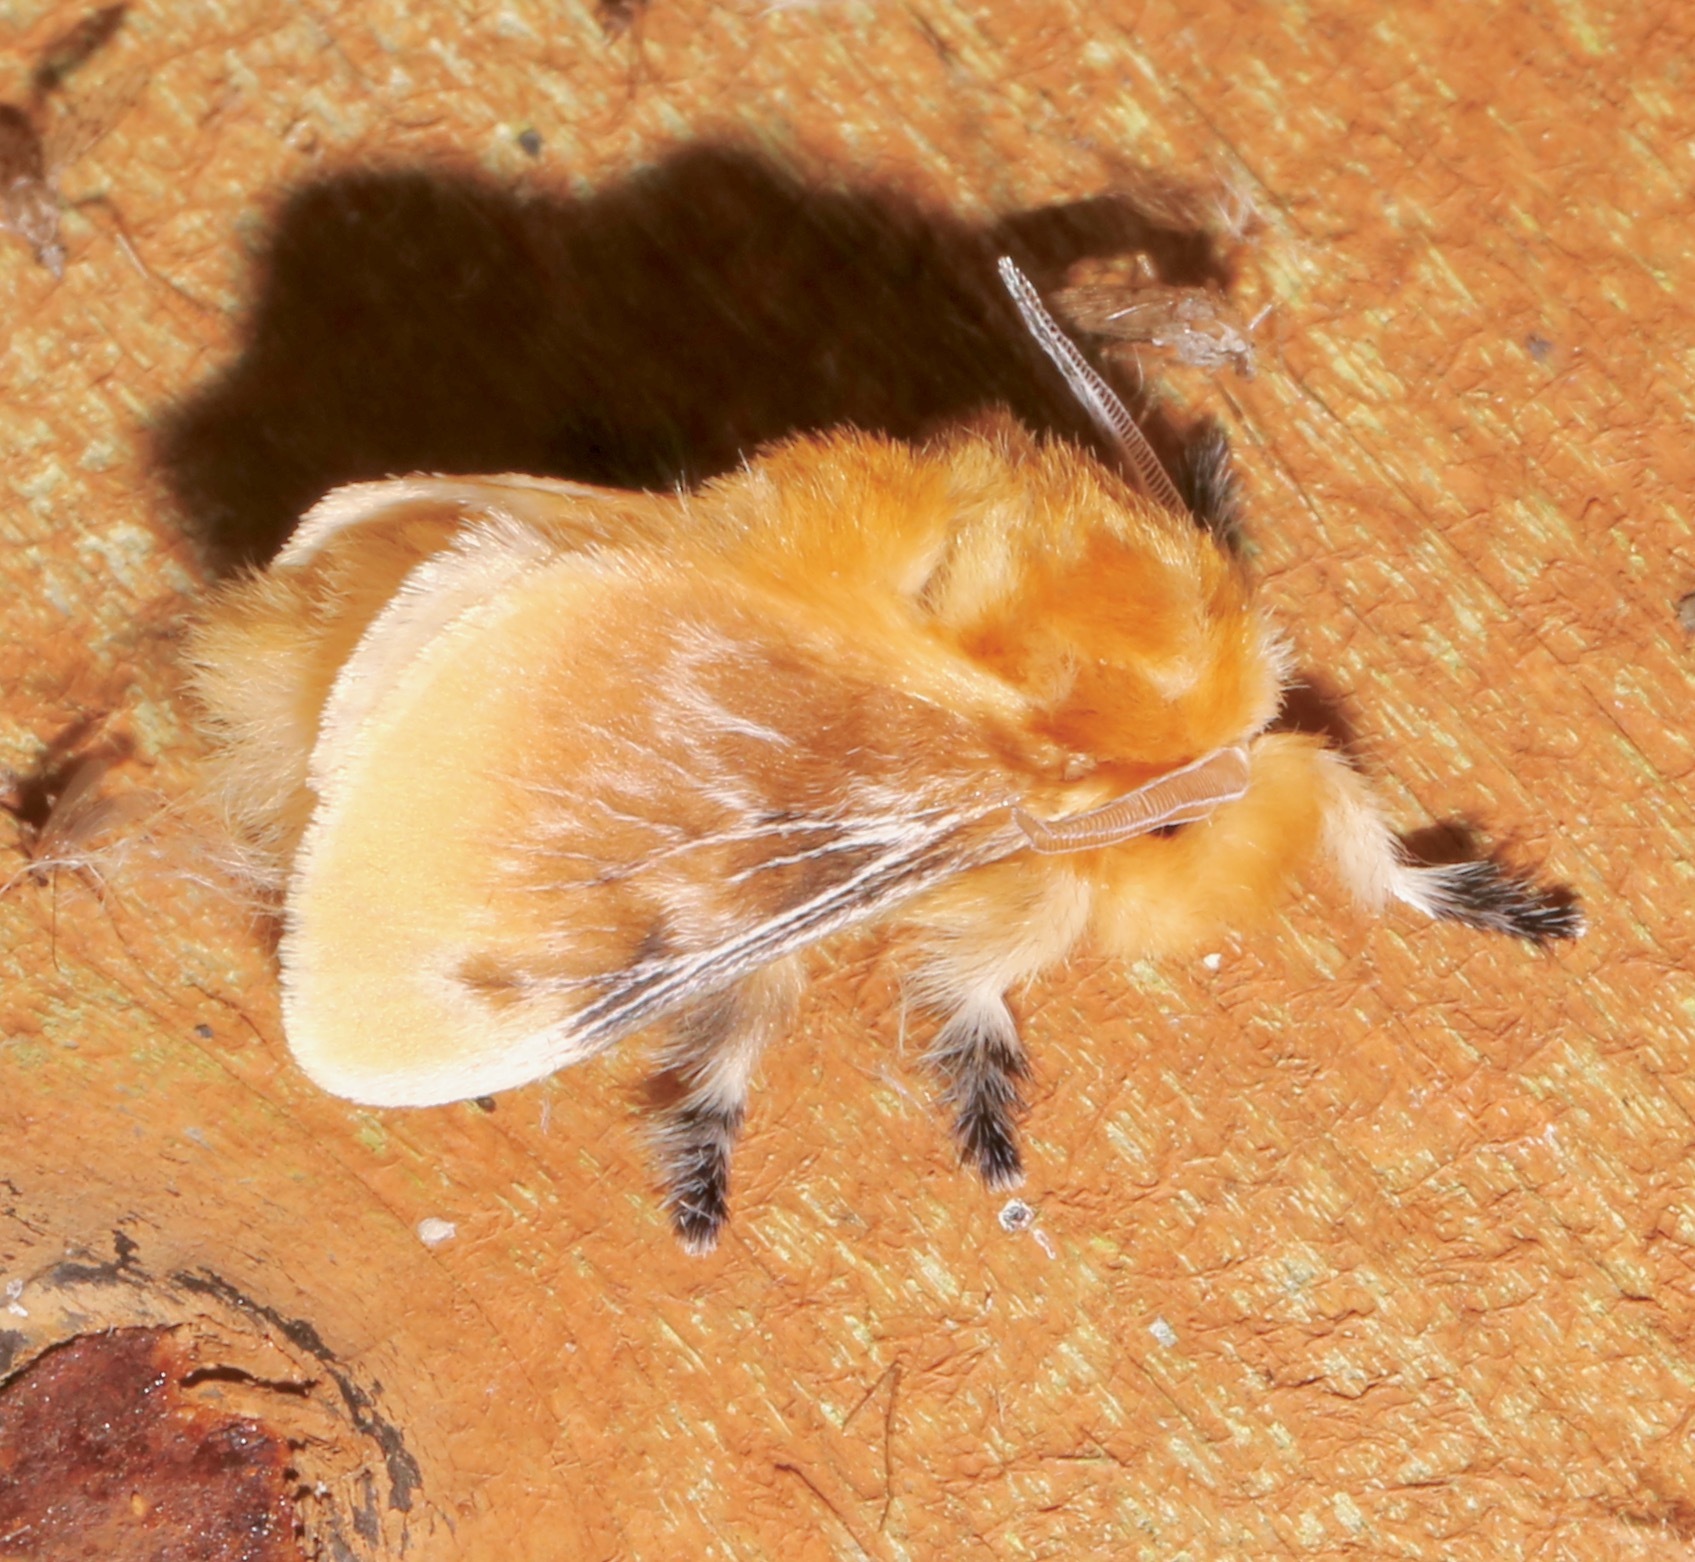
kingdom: Animalia
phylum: Arthropoda
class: Insecta
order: Lepidoptera
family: Megalopygidae
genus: Megalopyge
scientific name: Megalopyge opercularis
